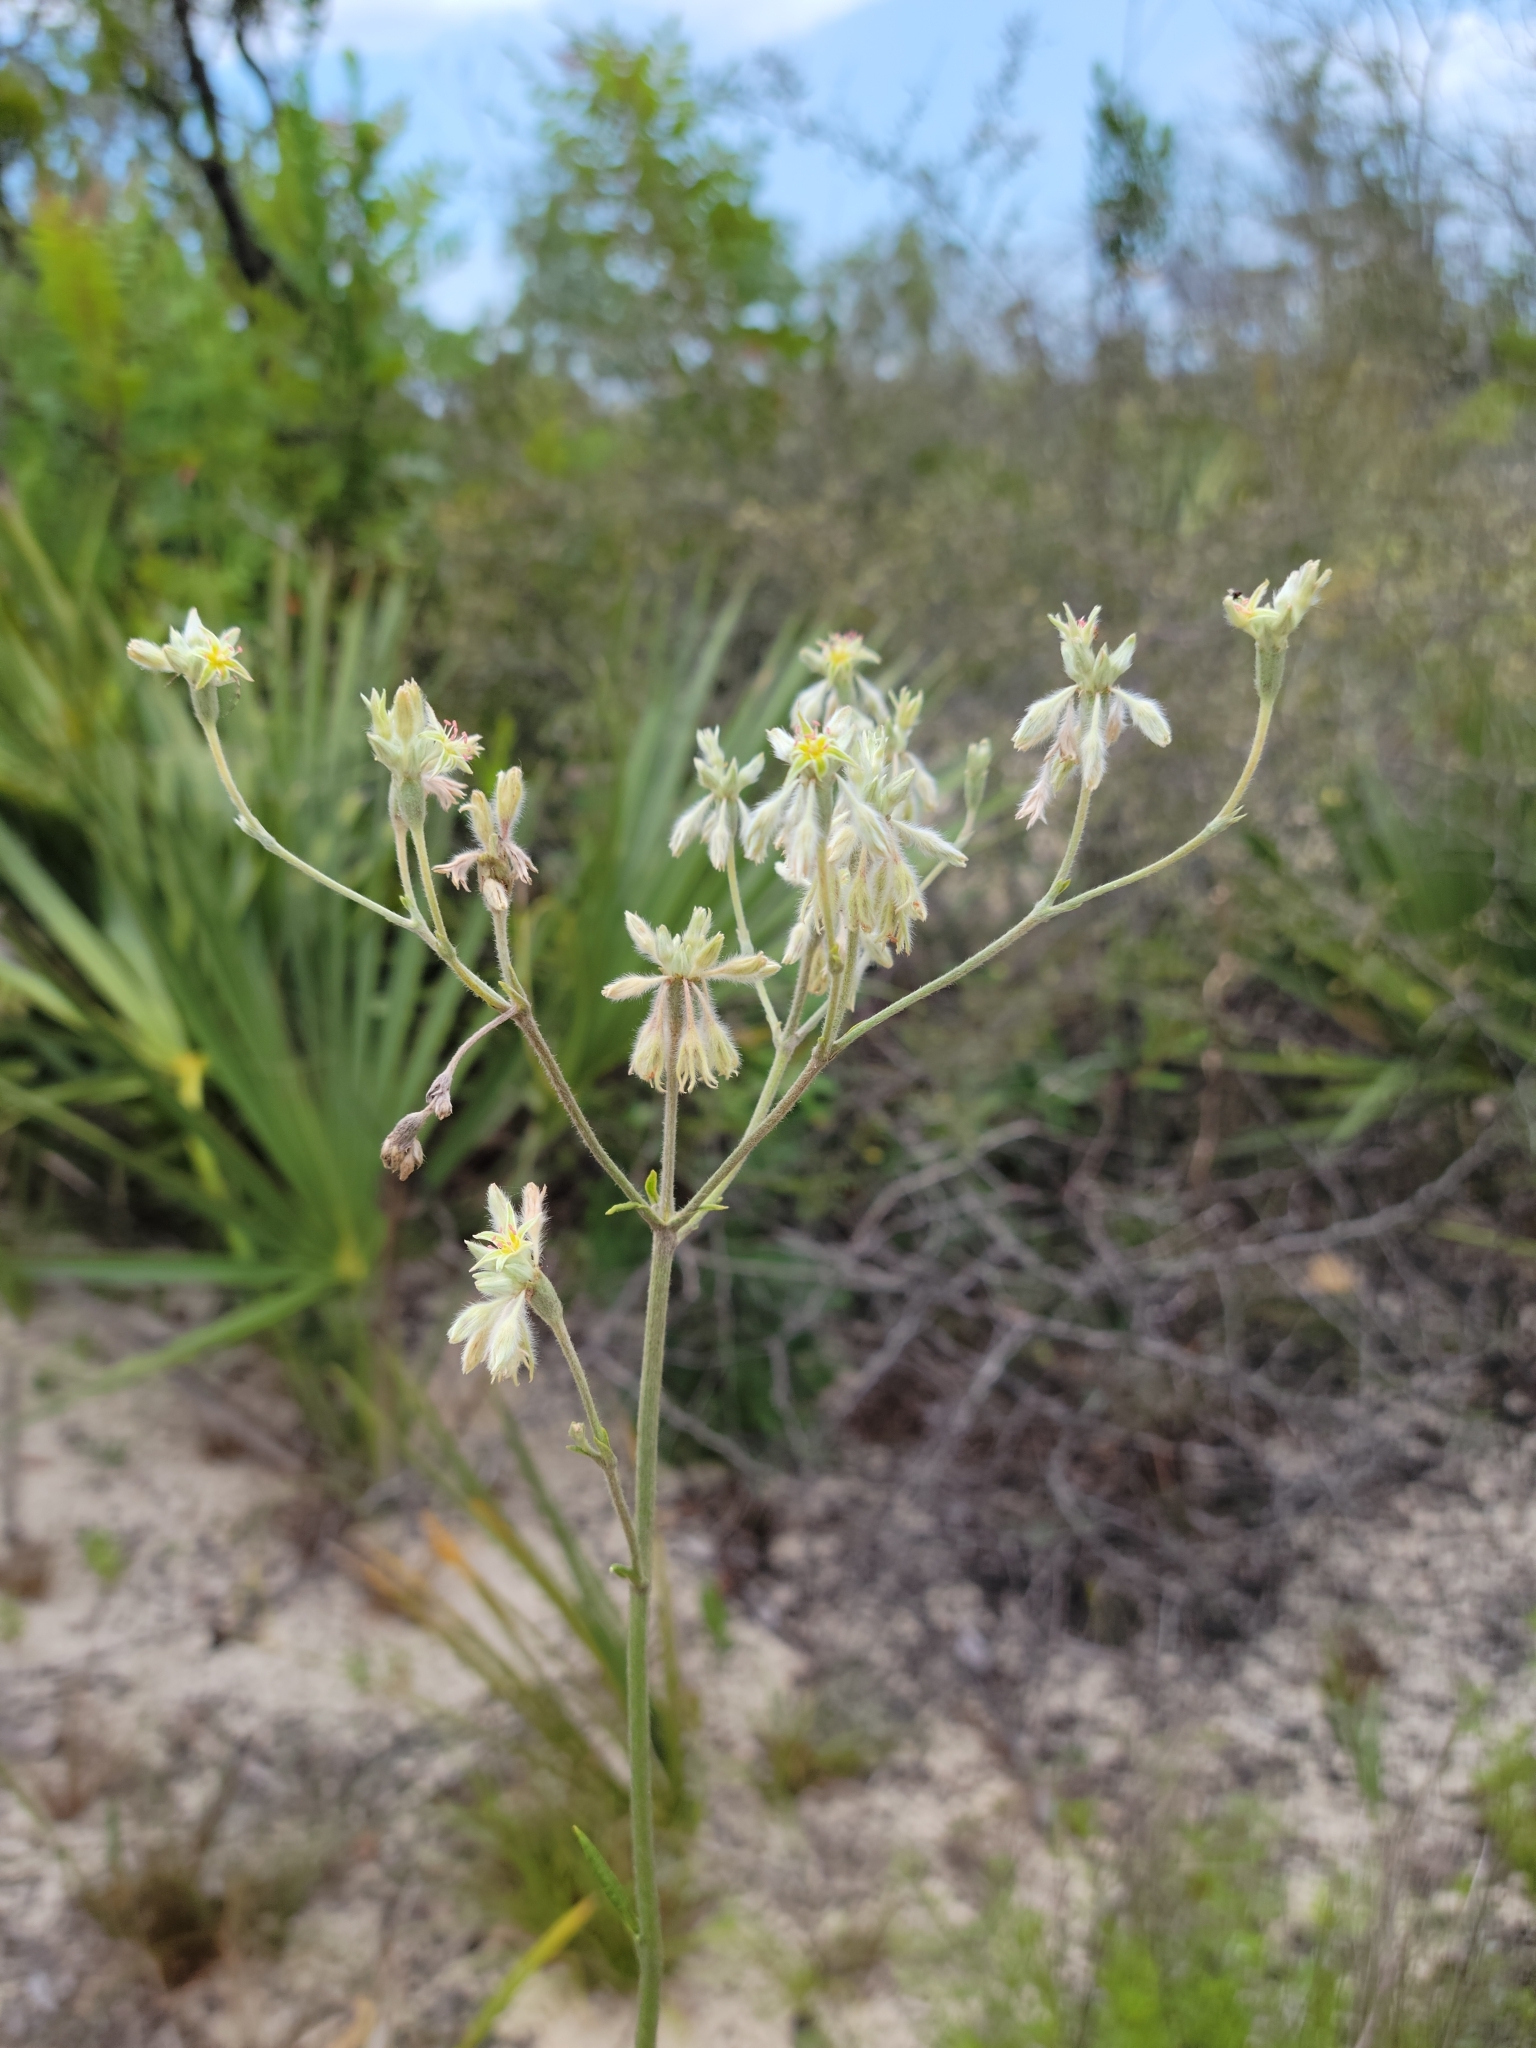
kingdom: Plantae
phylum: Tracheophyta
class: Magnoliopsida
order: Caryophyllales
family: Polygonaceae
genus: Eriogonum
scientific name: Eriogonum longifolium
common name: Longleaf wild buckwheat
